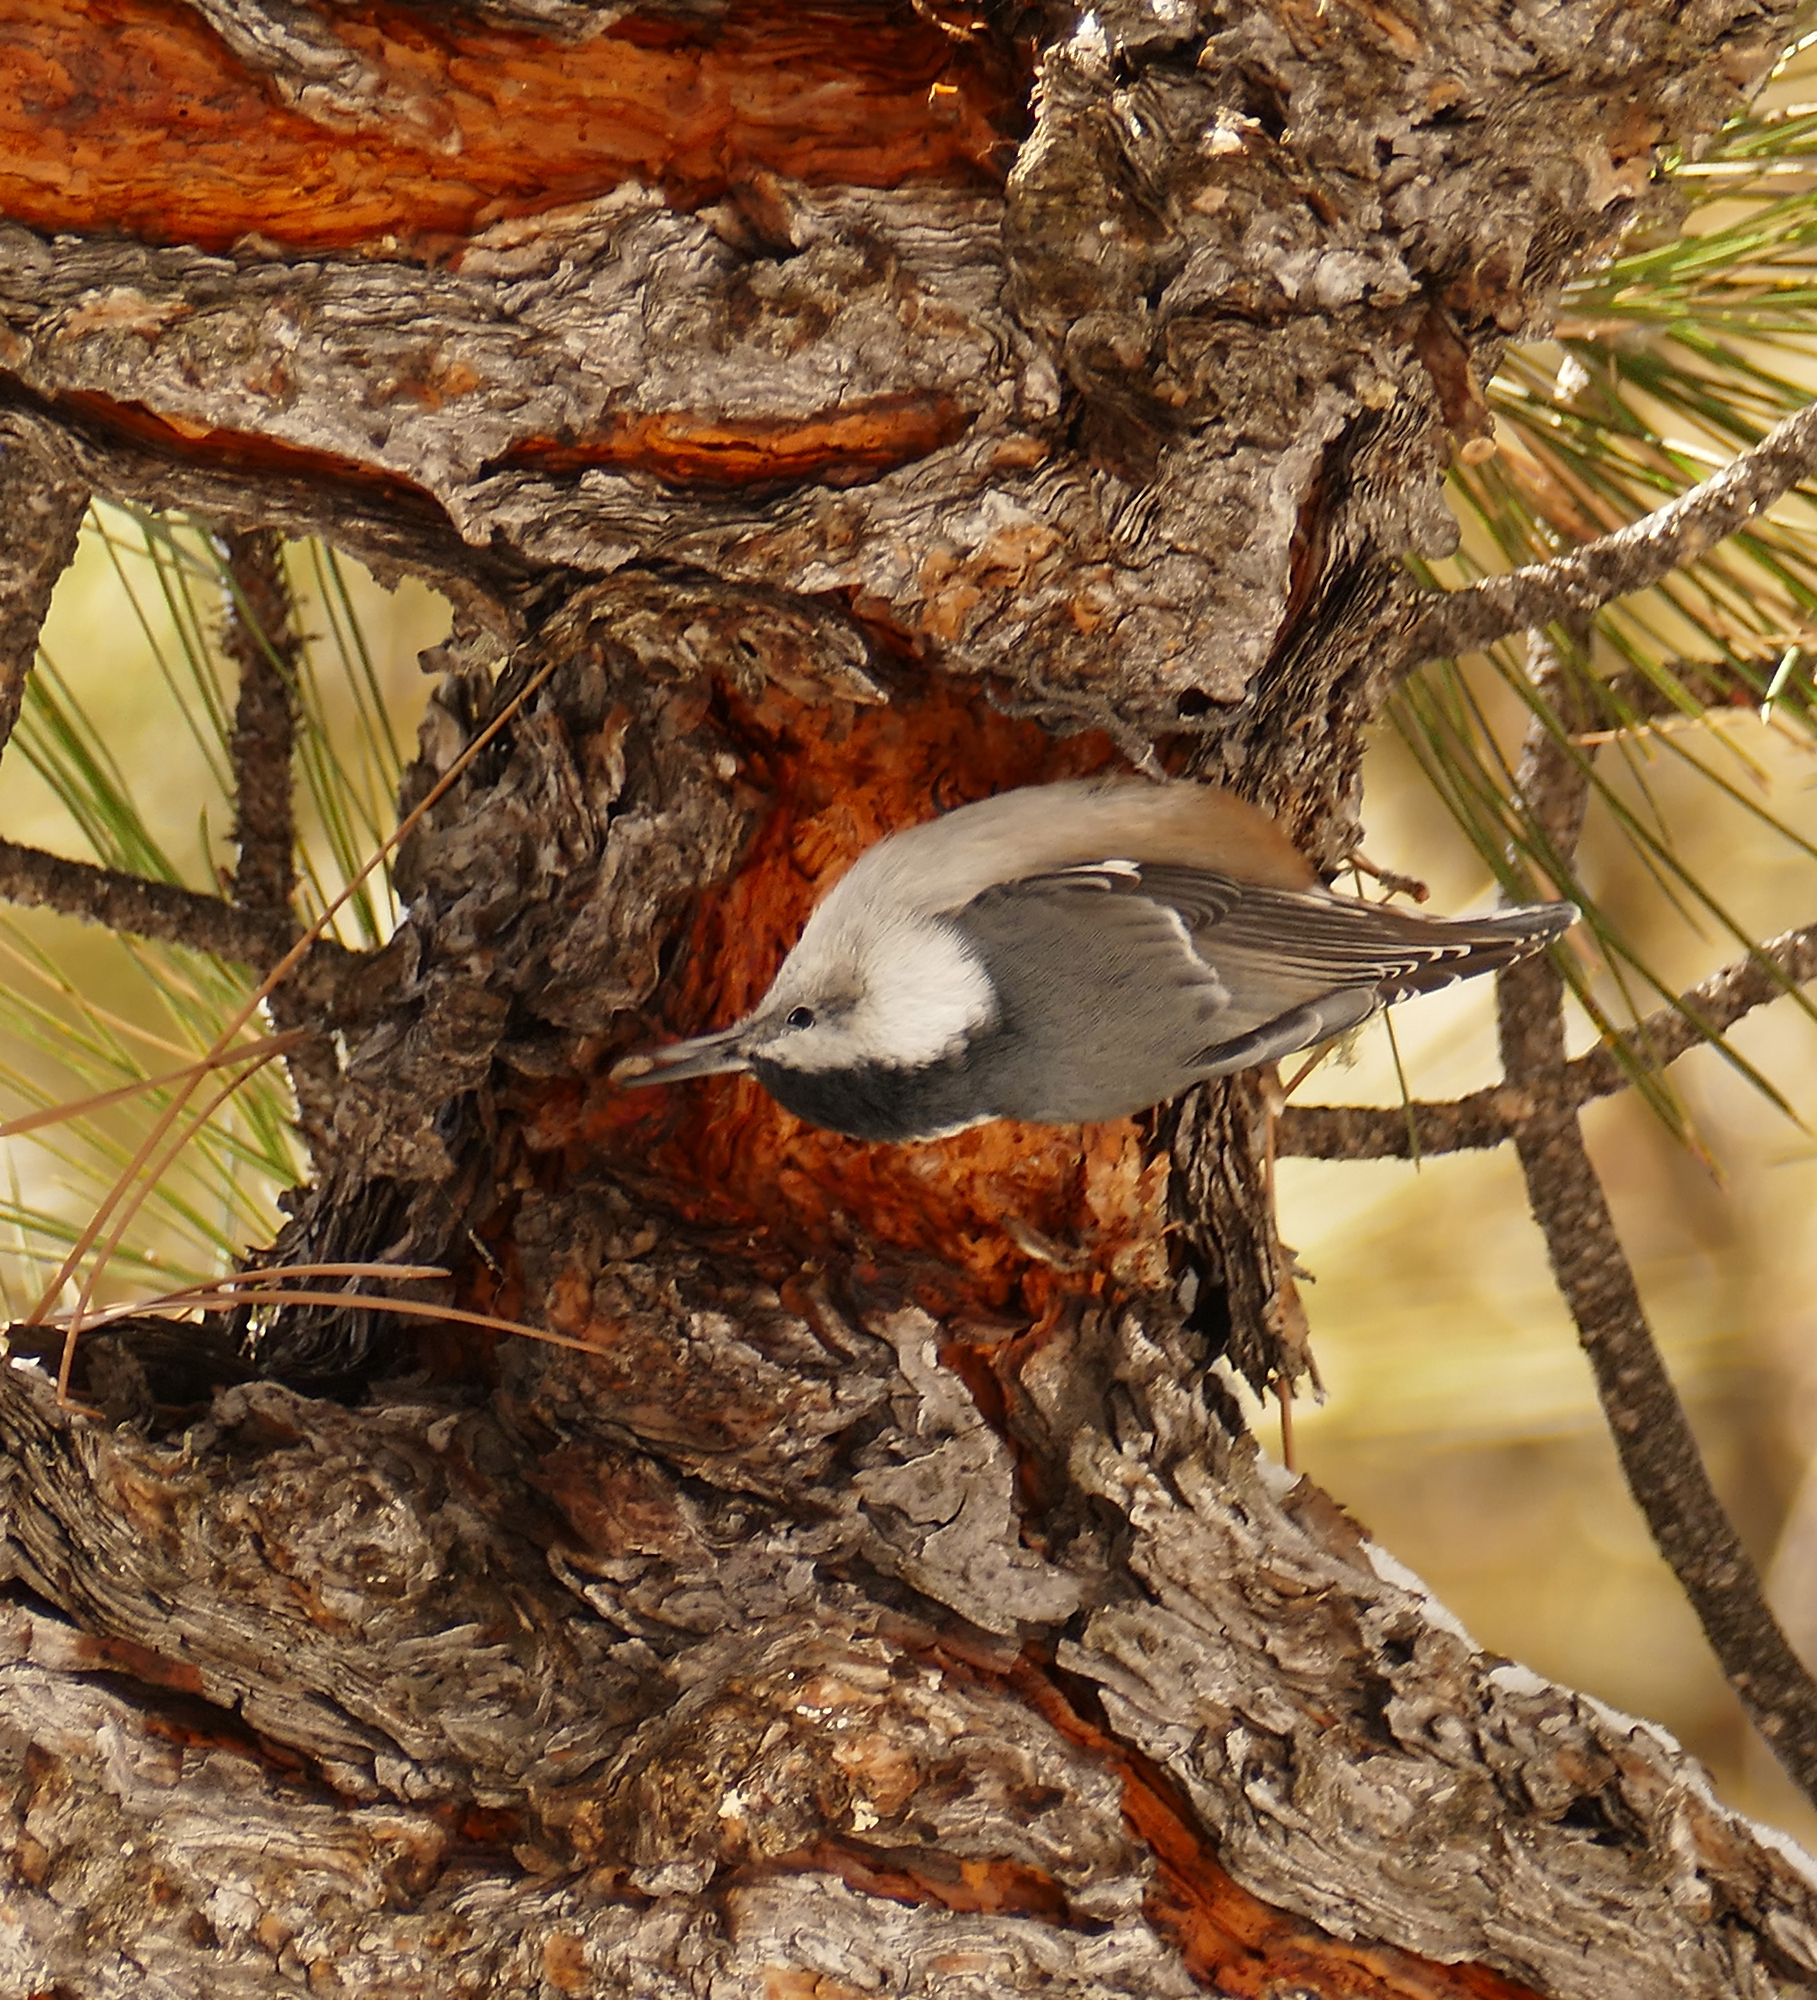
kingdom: Animalia
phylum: Chordata
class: Aves
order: Passeriformes
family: Sittidae
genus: Sitta
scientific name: Sitta carolinensis
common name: White-breasted nuthatch
